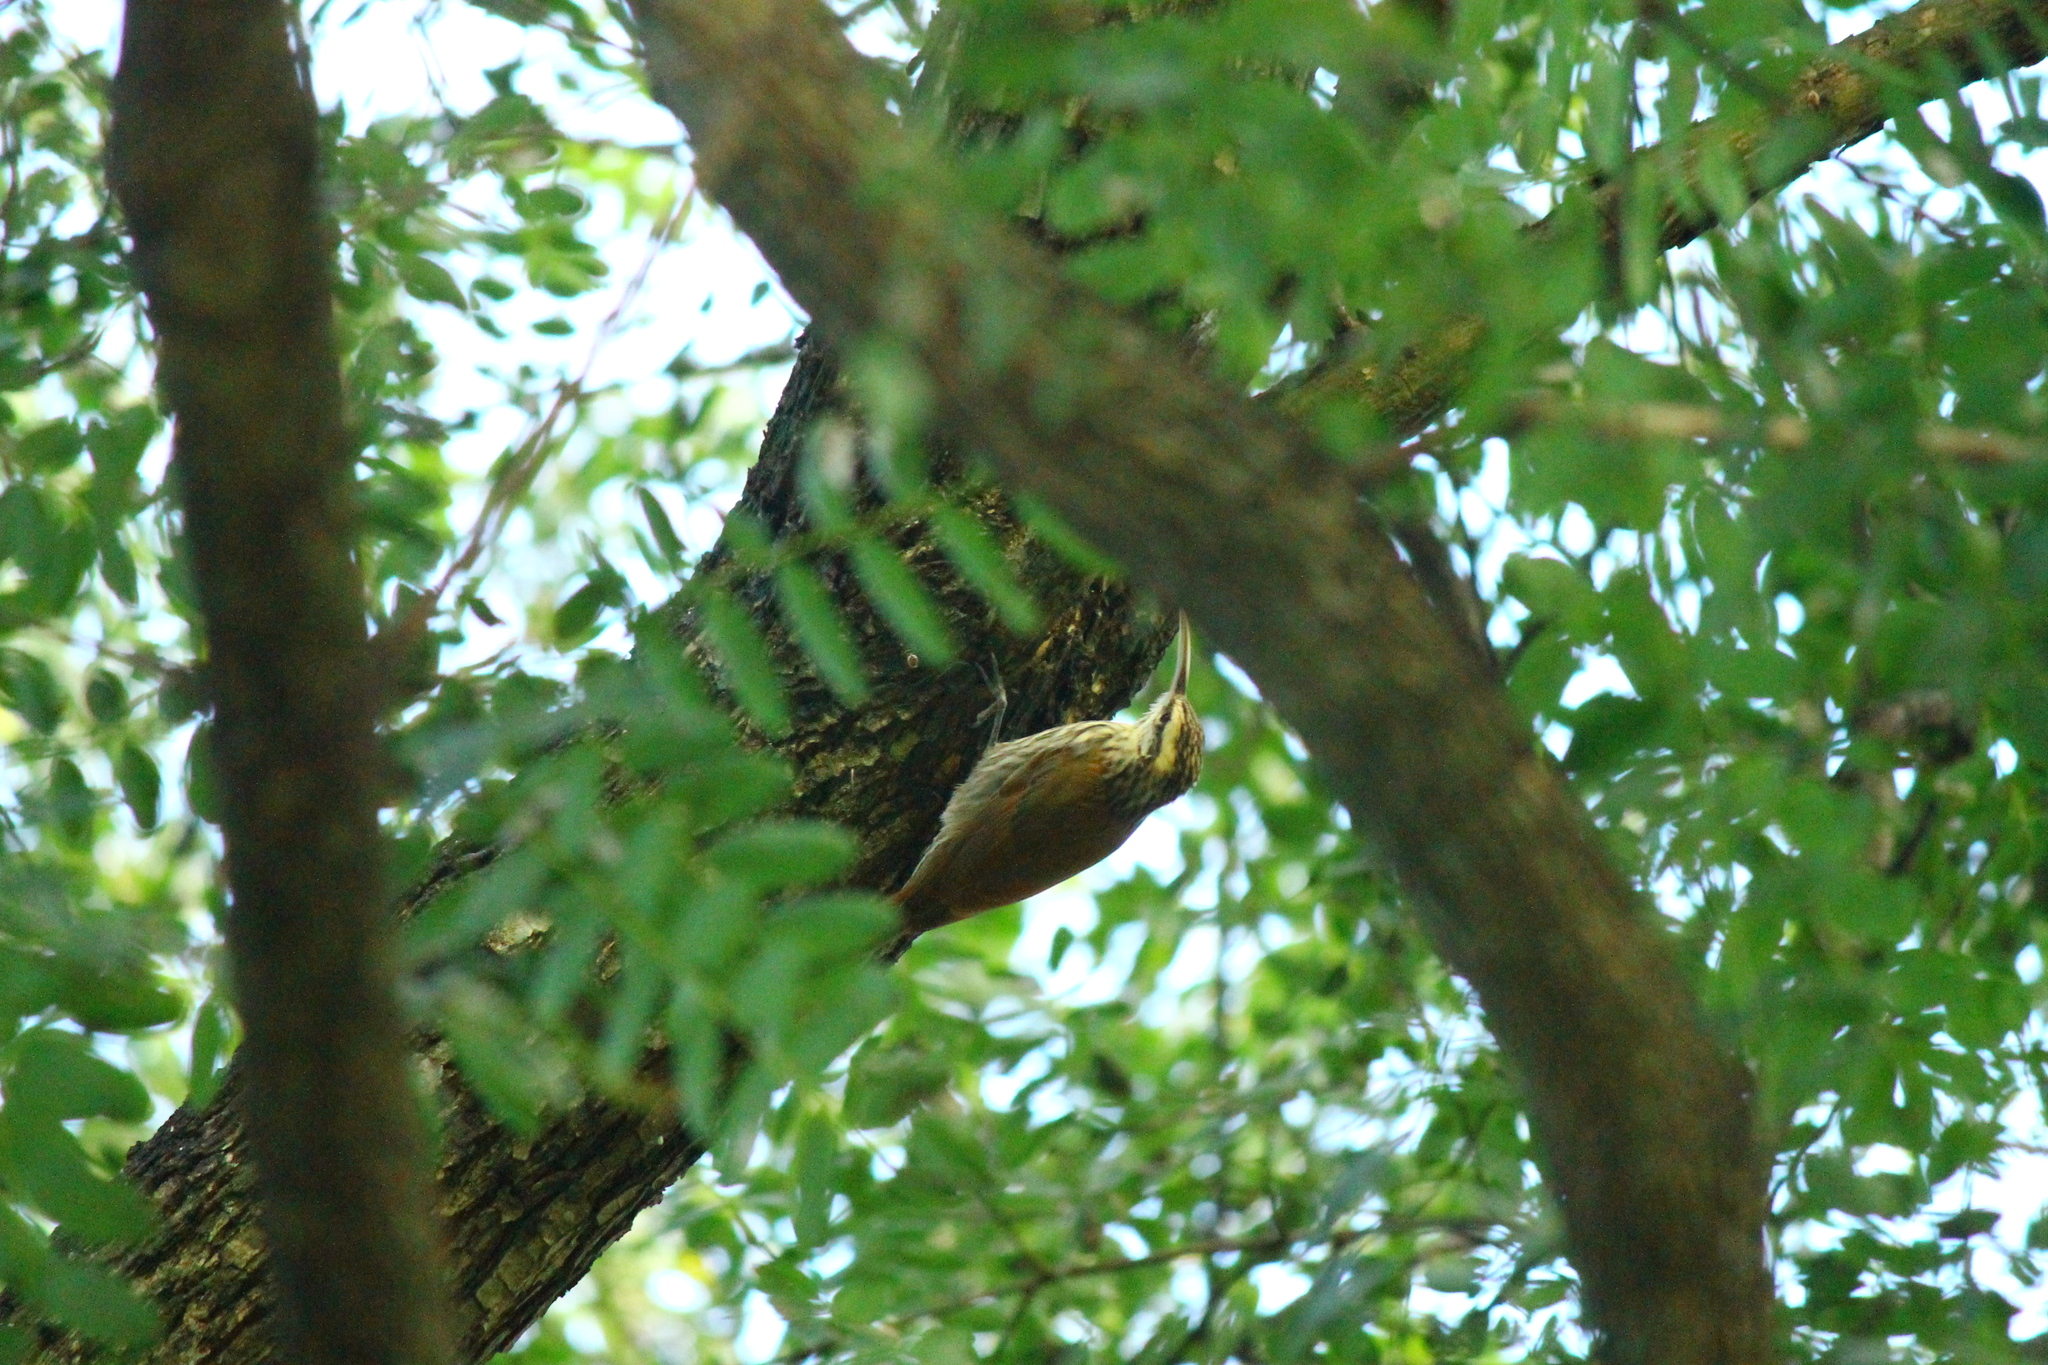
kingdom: Animalia
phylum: Chordata
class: Aves
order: Passeriformes
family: Furnariidae
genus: Lepidocolaptes
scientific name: Lepidocolaptes angustirostris
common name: Narrow-billed woodcreeper
